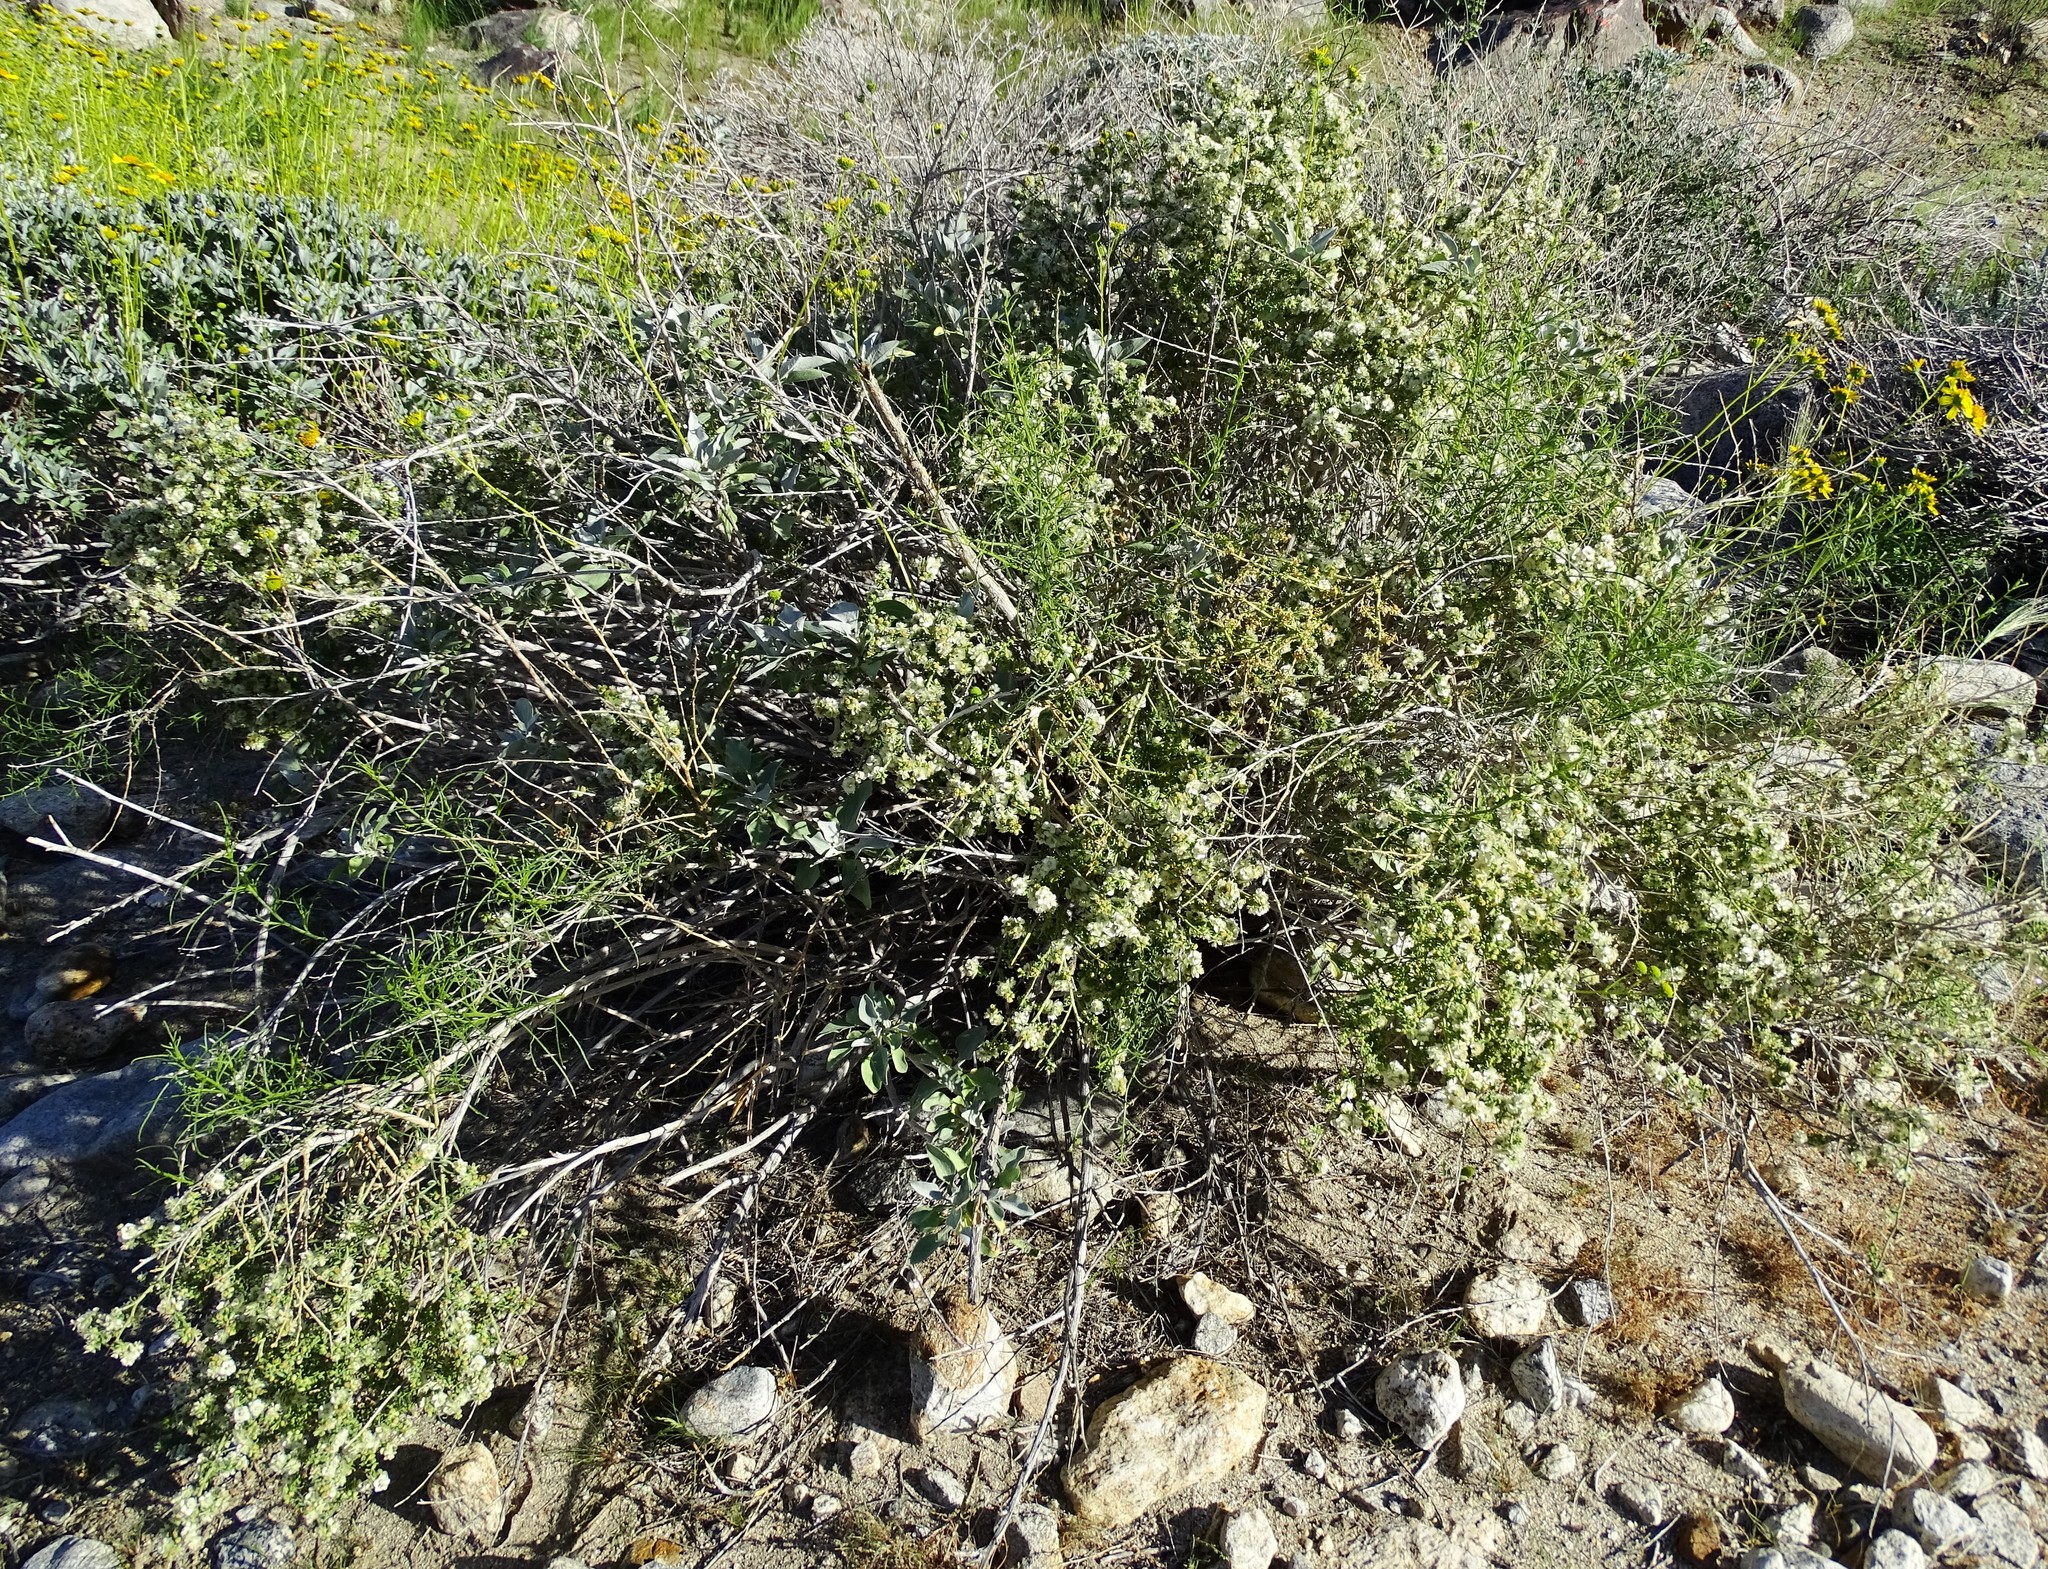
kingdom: Plantae
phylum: Tracheophyta
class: Magnoliopsida
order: Asterales
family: Asteraceae
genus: Ambrosia
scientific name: Ambrosia salsola
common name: Burrobrush
